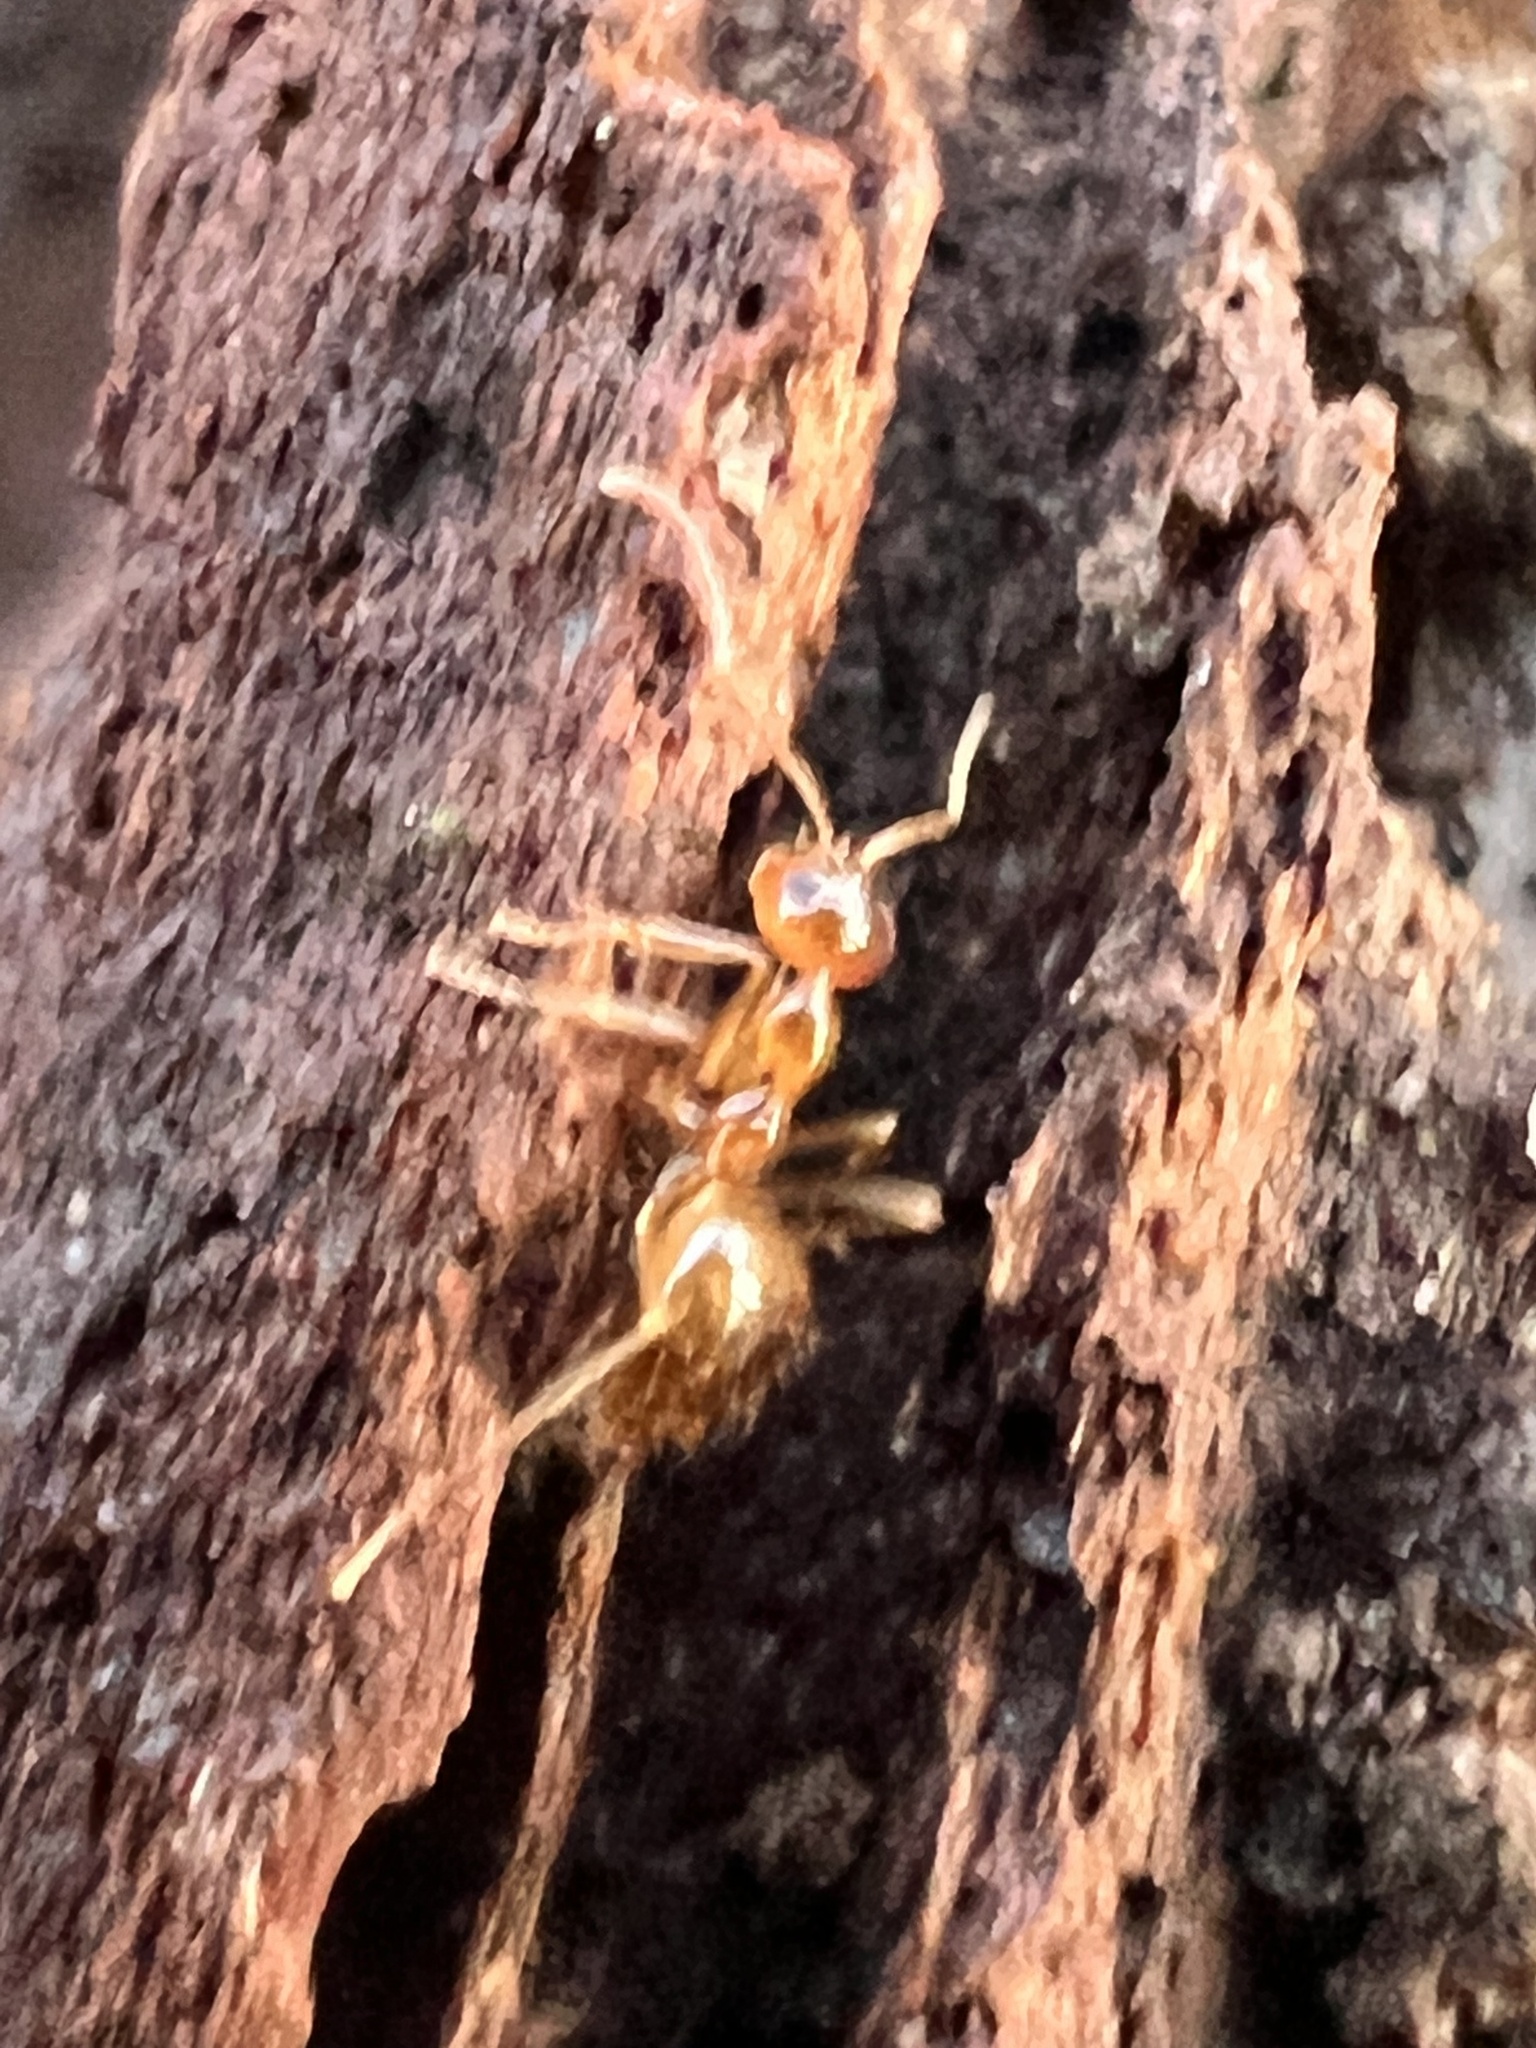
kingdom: Animalia
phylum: Arthropoda
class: Insecta
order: Hymenoptera
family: Formicidae
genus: Prenolepis
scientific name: Prenolepis imparis
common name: Small honey ant
